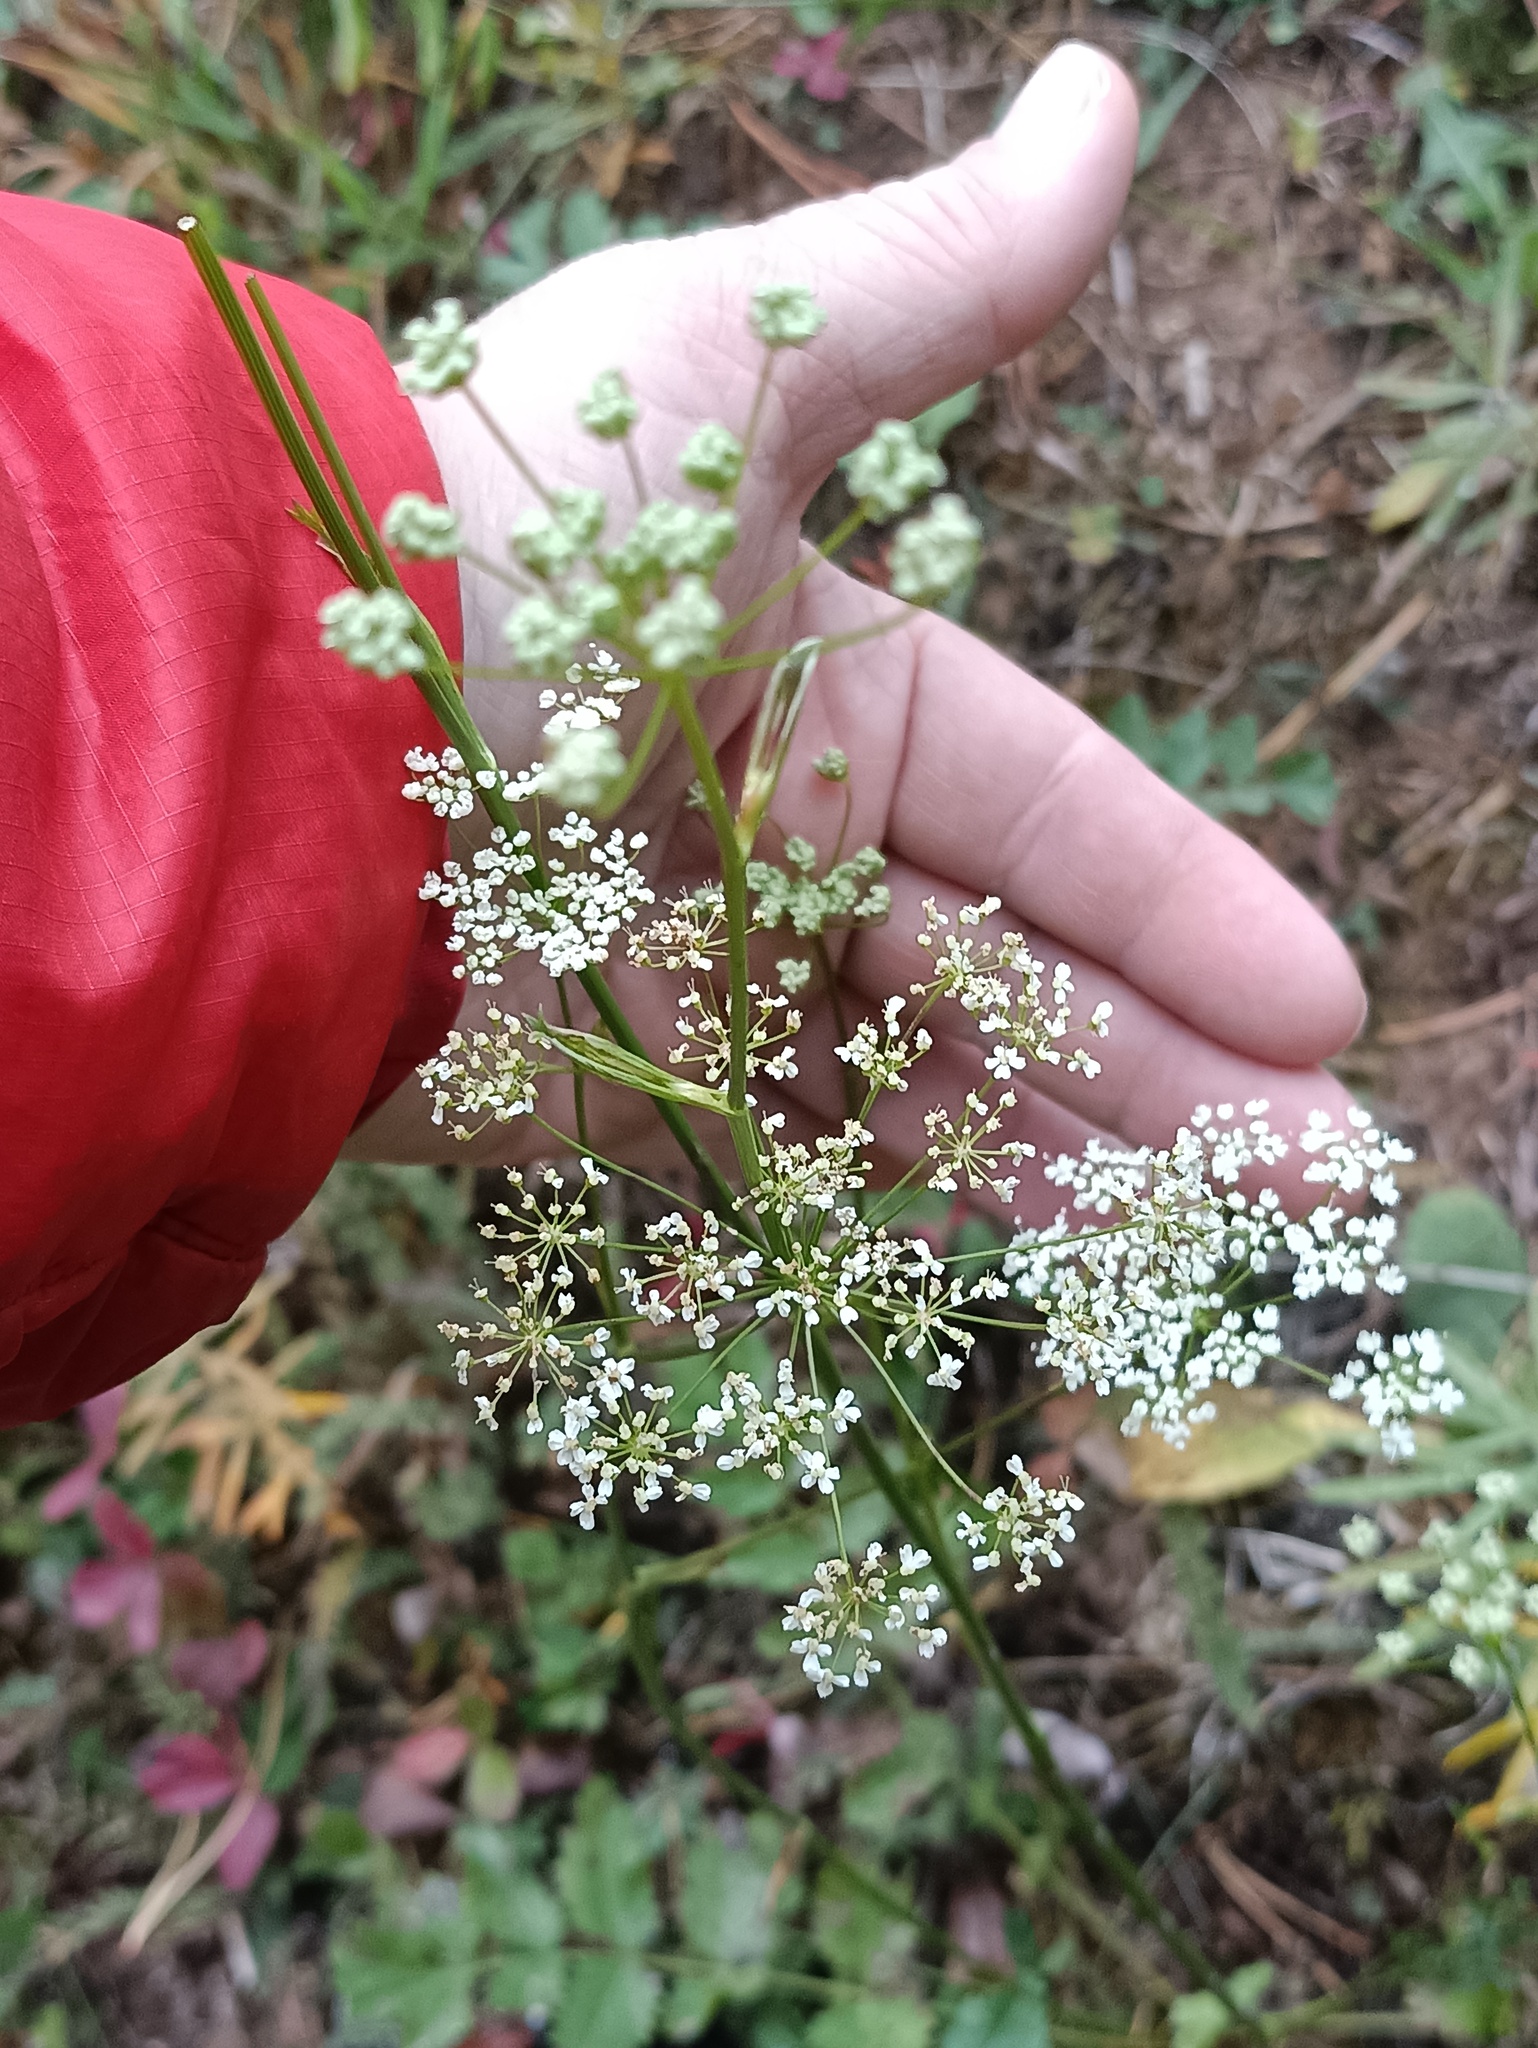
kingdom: Plantae
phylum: Tracheophyta
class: Magnoliopsida
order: Apiales
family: Apiaceae
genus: Pimpinella
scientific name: Pimpinella saxifraga
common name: Burnet-saxifrage
